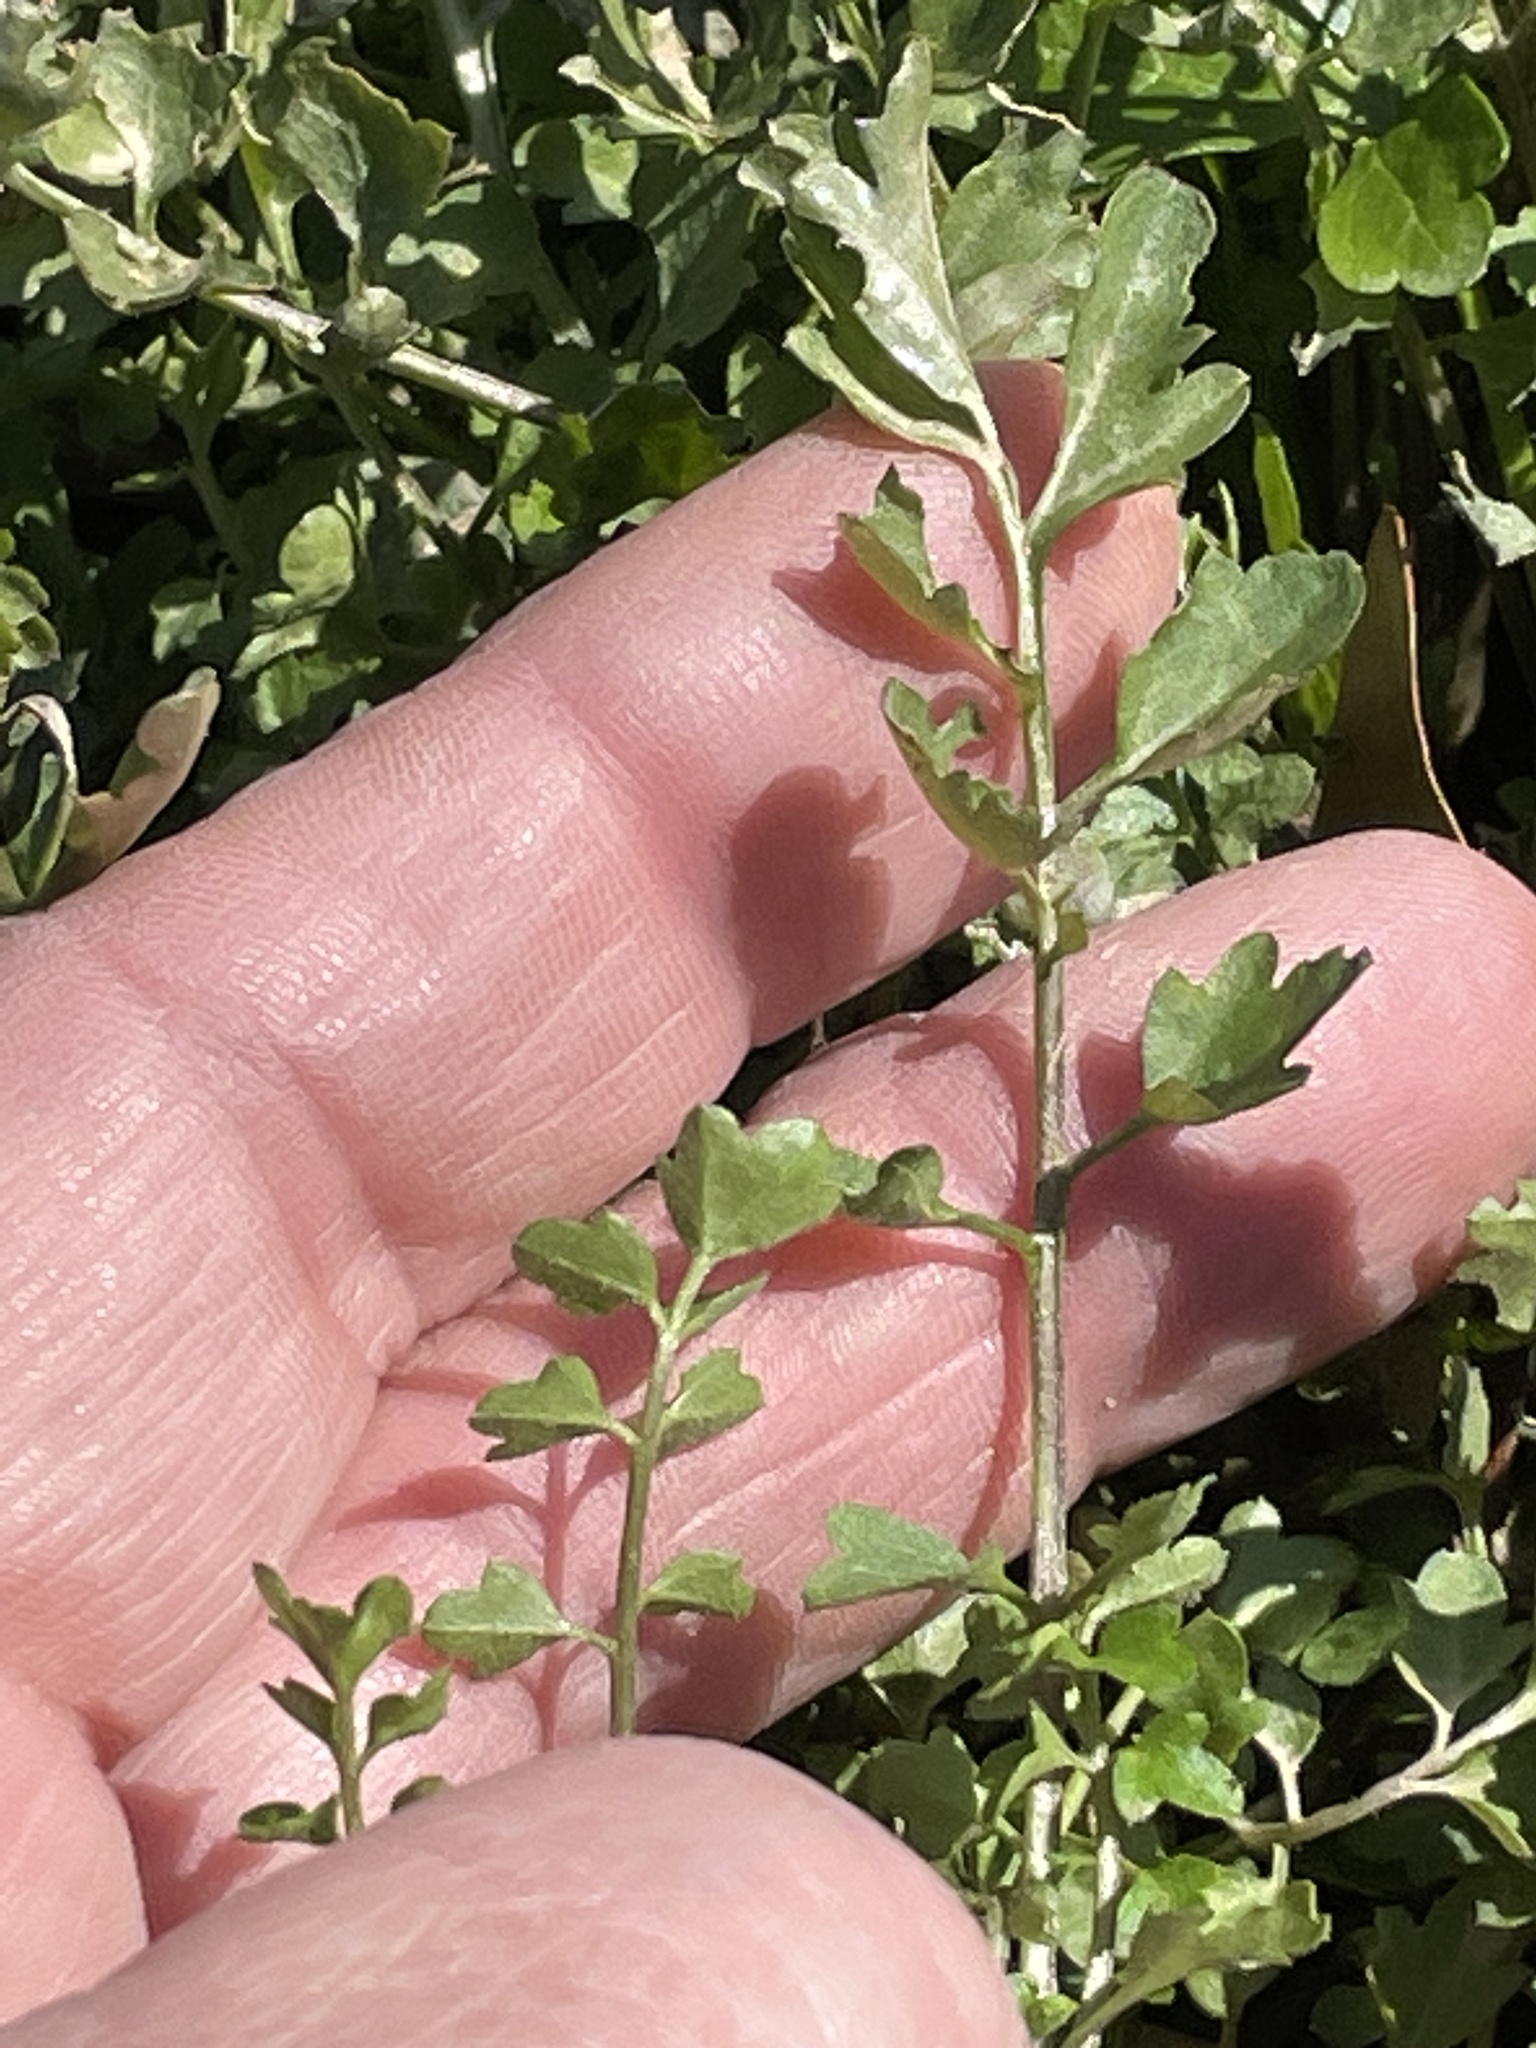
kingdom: Plantae
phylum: Tracheophyta
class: Magnoliopsida
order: Brassicales
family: Brassicaceae
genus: Cardamine
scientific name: Cardamine occulta
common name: Asian wavy bittercress
